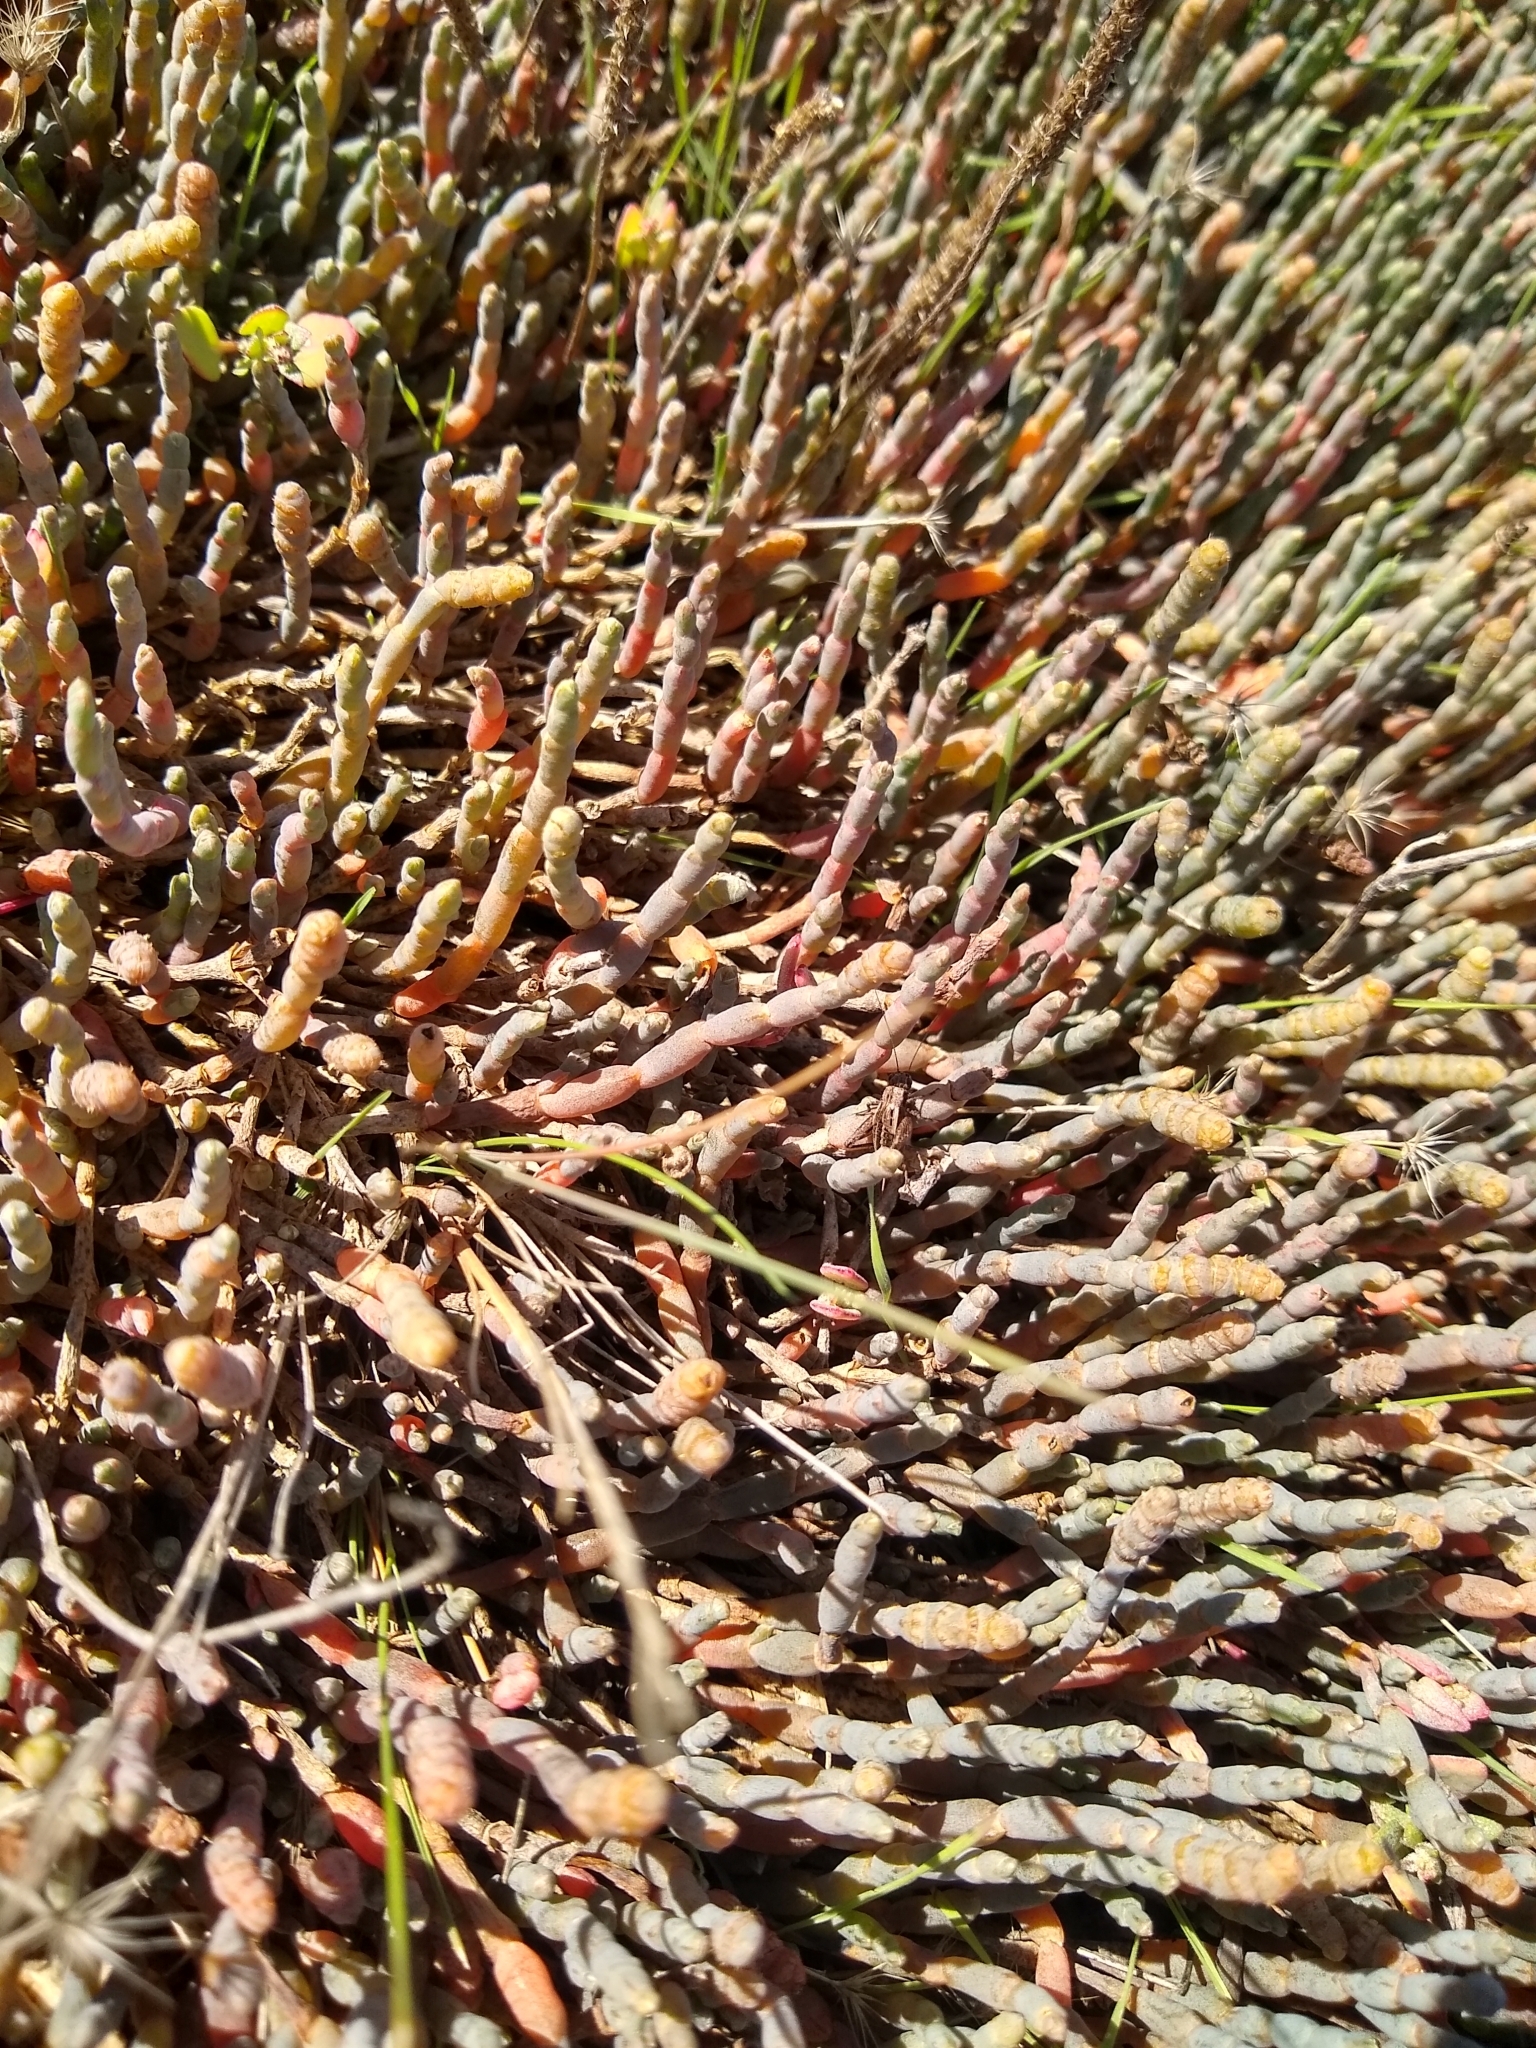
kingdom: Plantae
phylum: Tracheophyta
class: Magnoliopsida
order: Caryophyllales
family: Amaranthaceae
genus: Salicornia
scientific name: Salicornia quinqueflora
